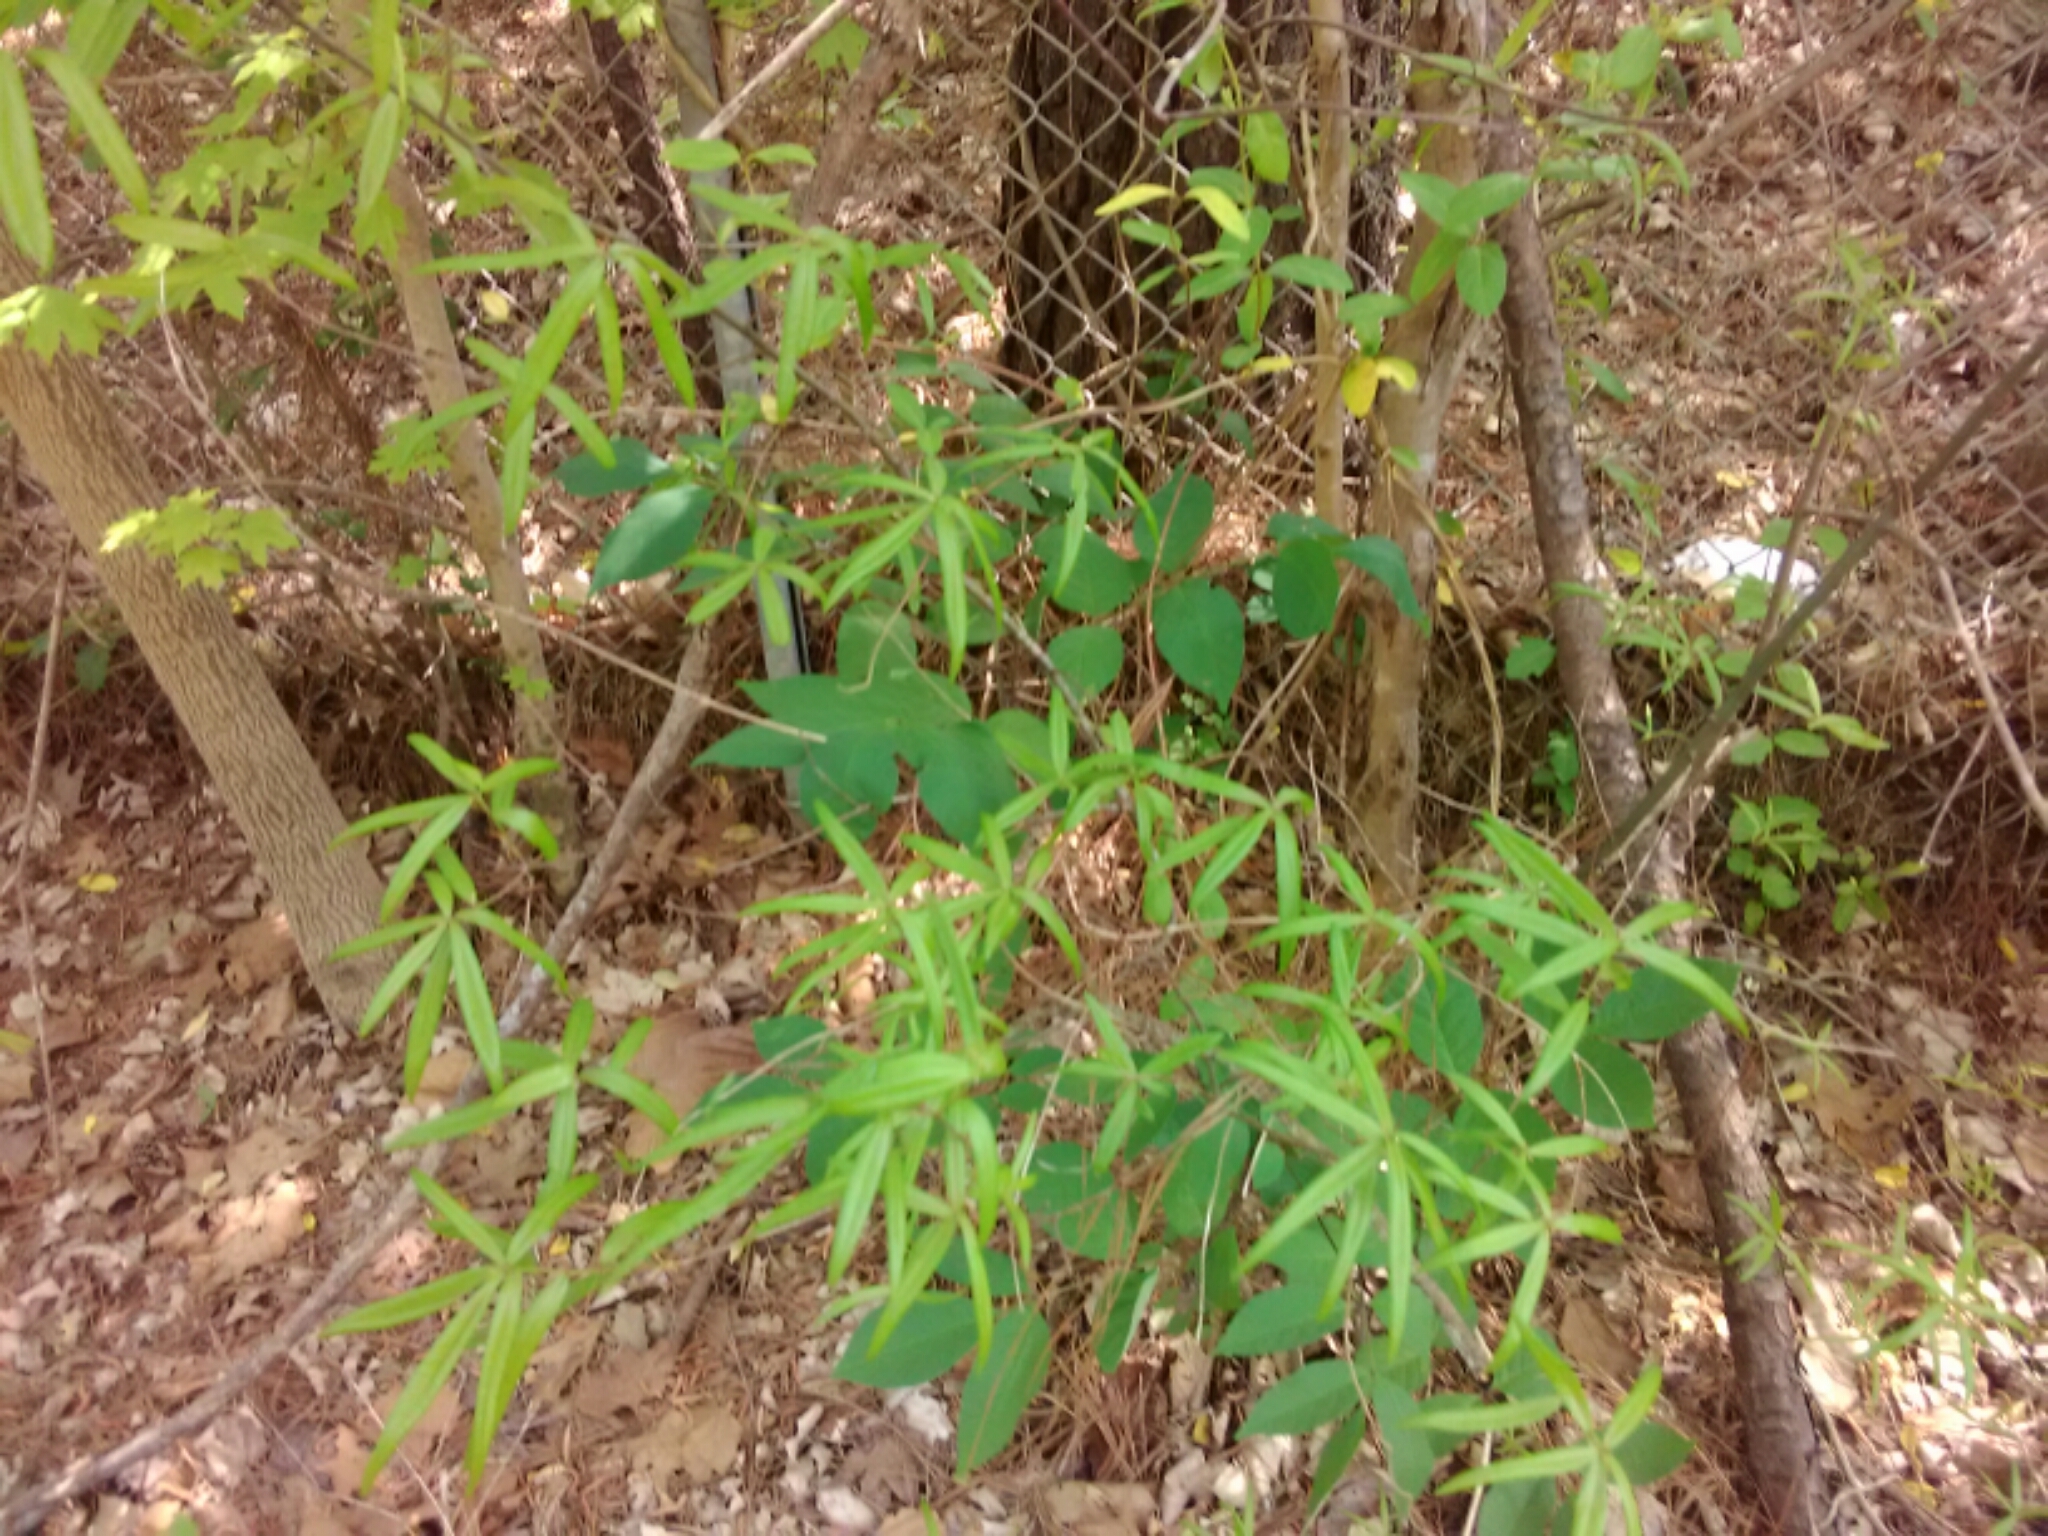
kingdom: Plantae
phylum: Tracheophyta
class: Magnoliopsida
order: Fagales
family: Fagaceae
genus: Quercus
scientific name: Quercus phellos
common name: Willow oak
